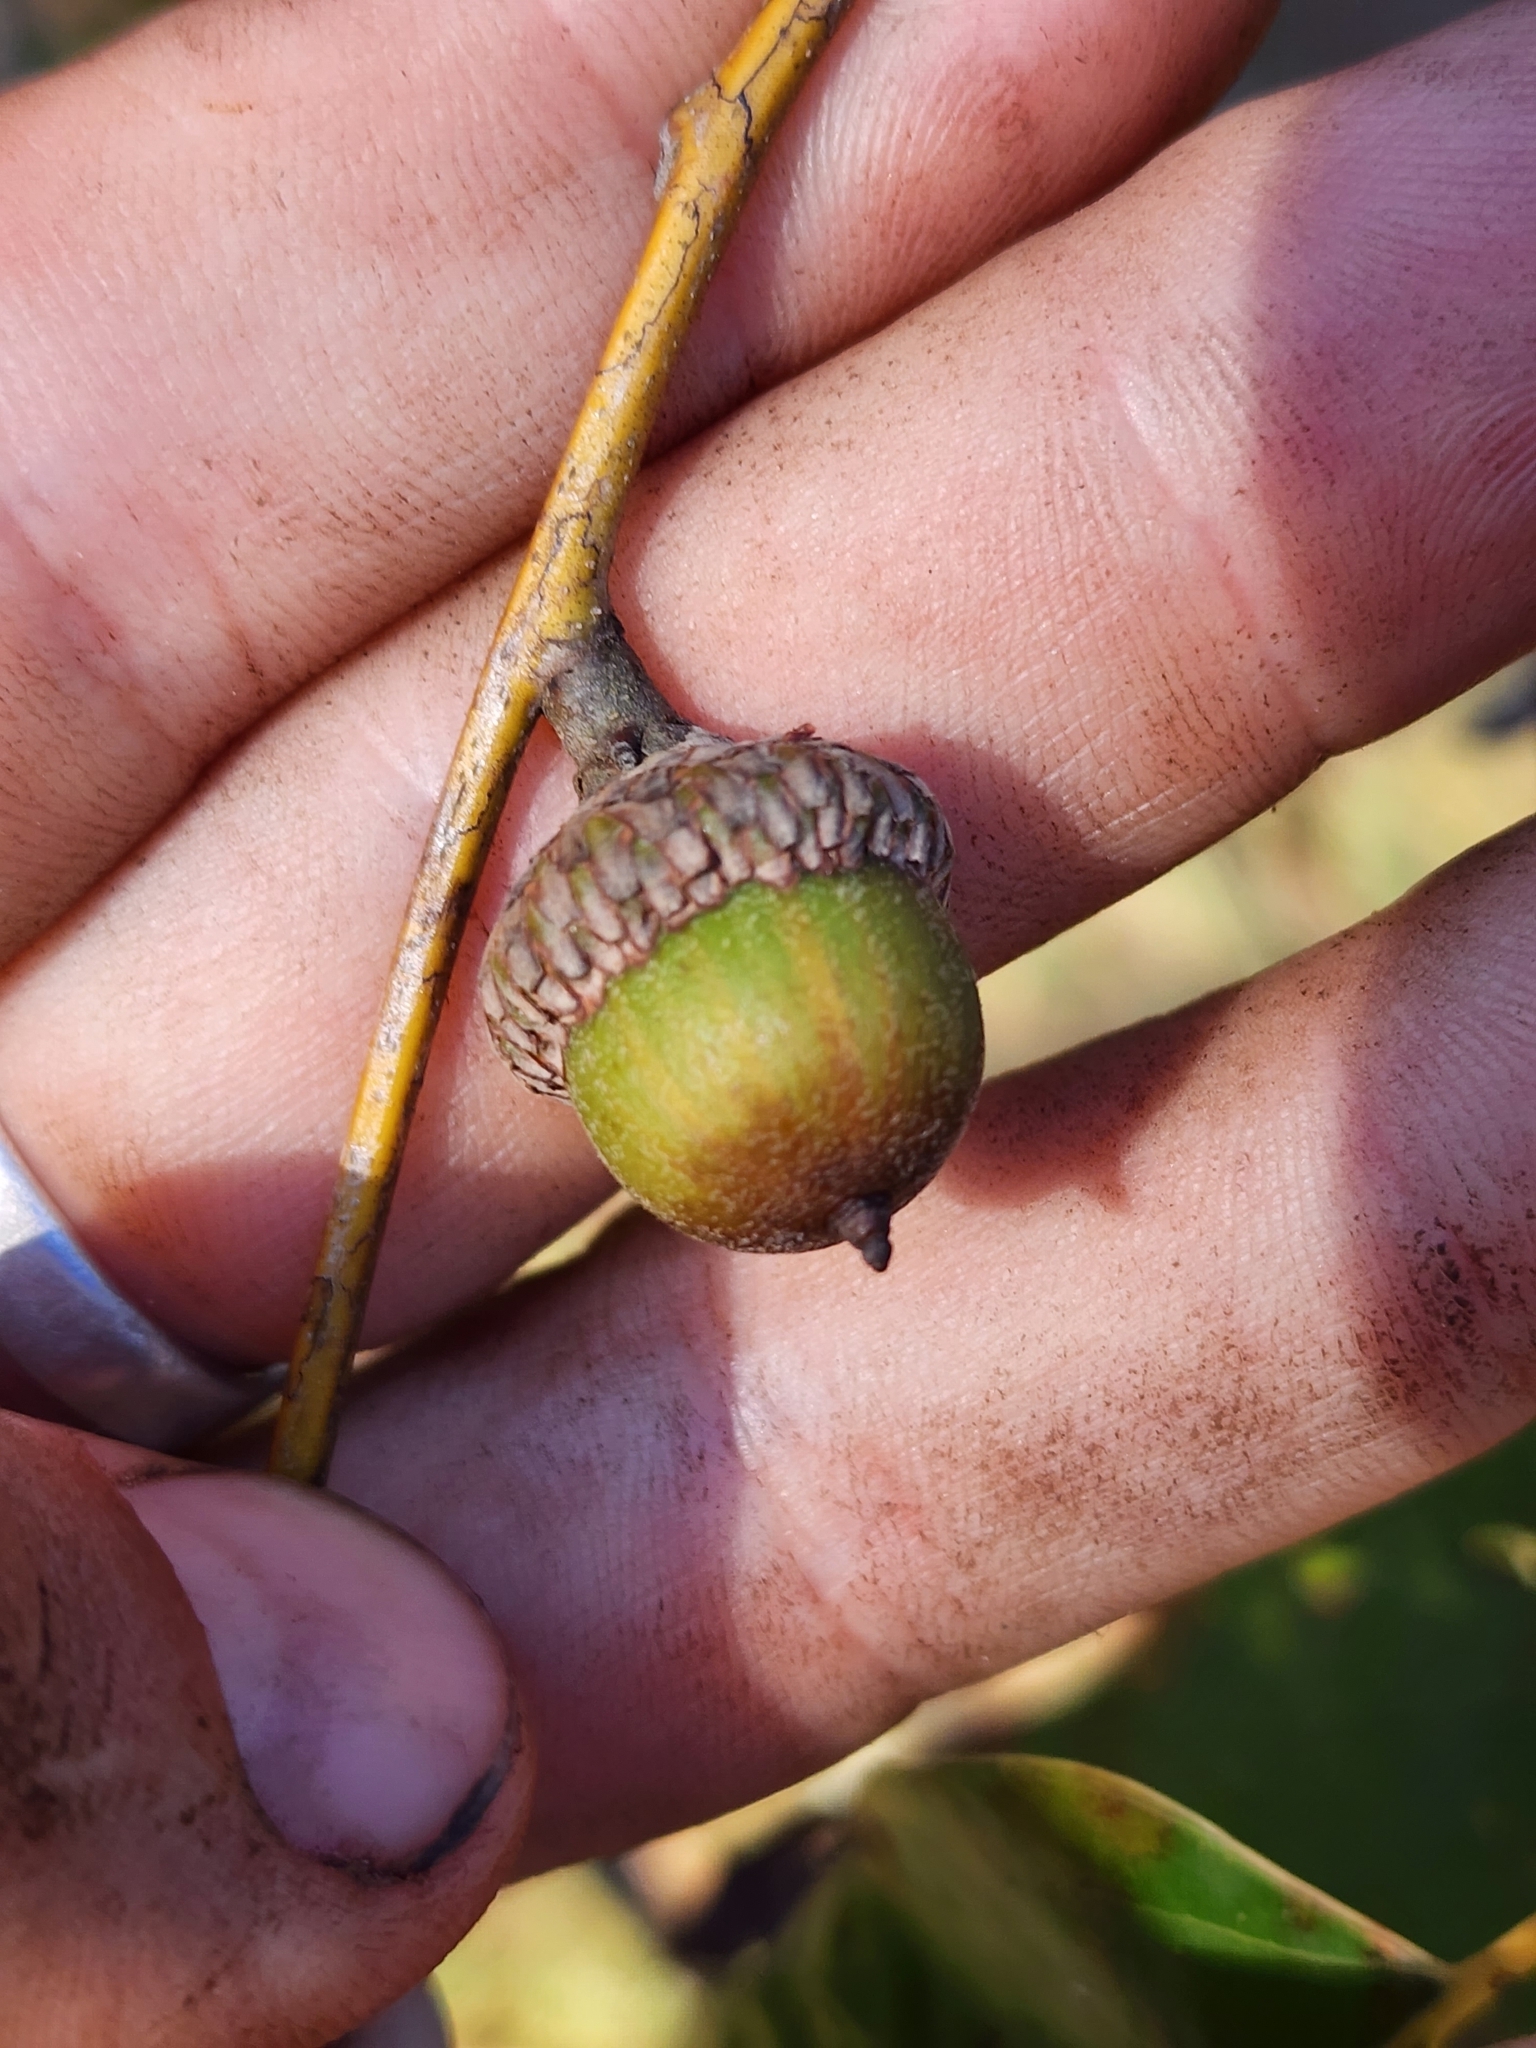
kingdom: Plantae
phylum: Tracheophyta
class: Magnoliopsida
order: Fagales
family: Fagaceae
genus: Quercus
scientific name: Quercus falcata
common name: Southern red oak
